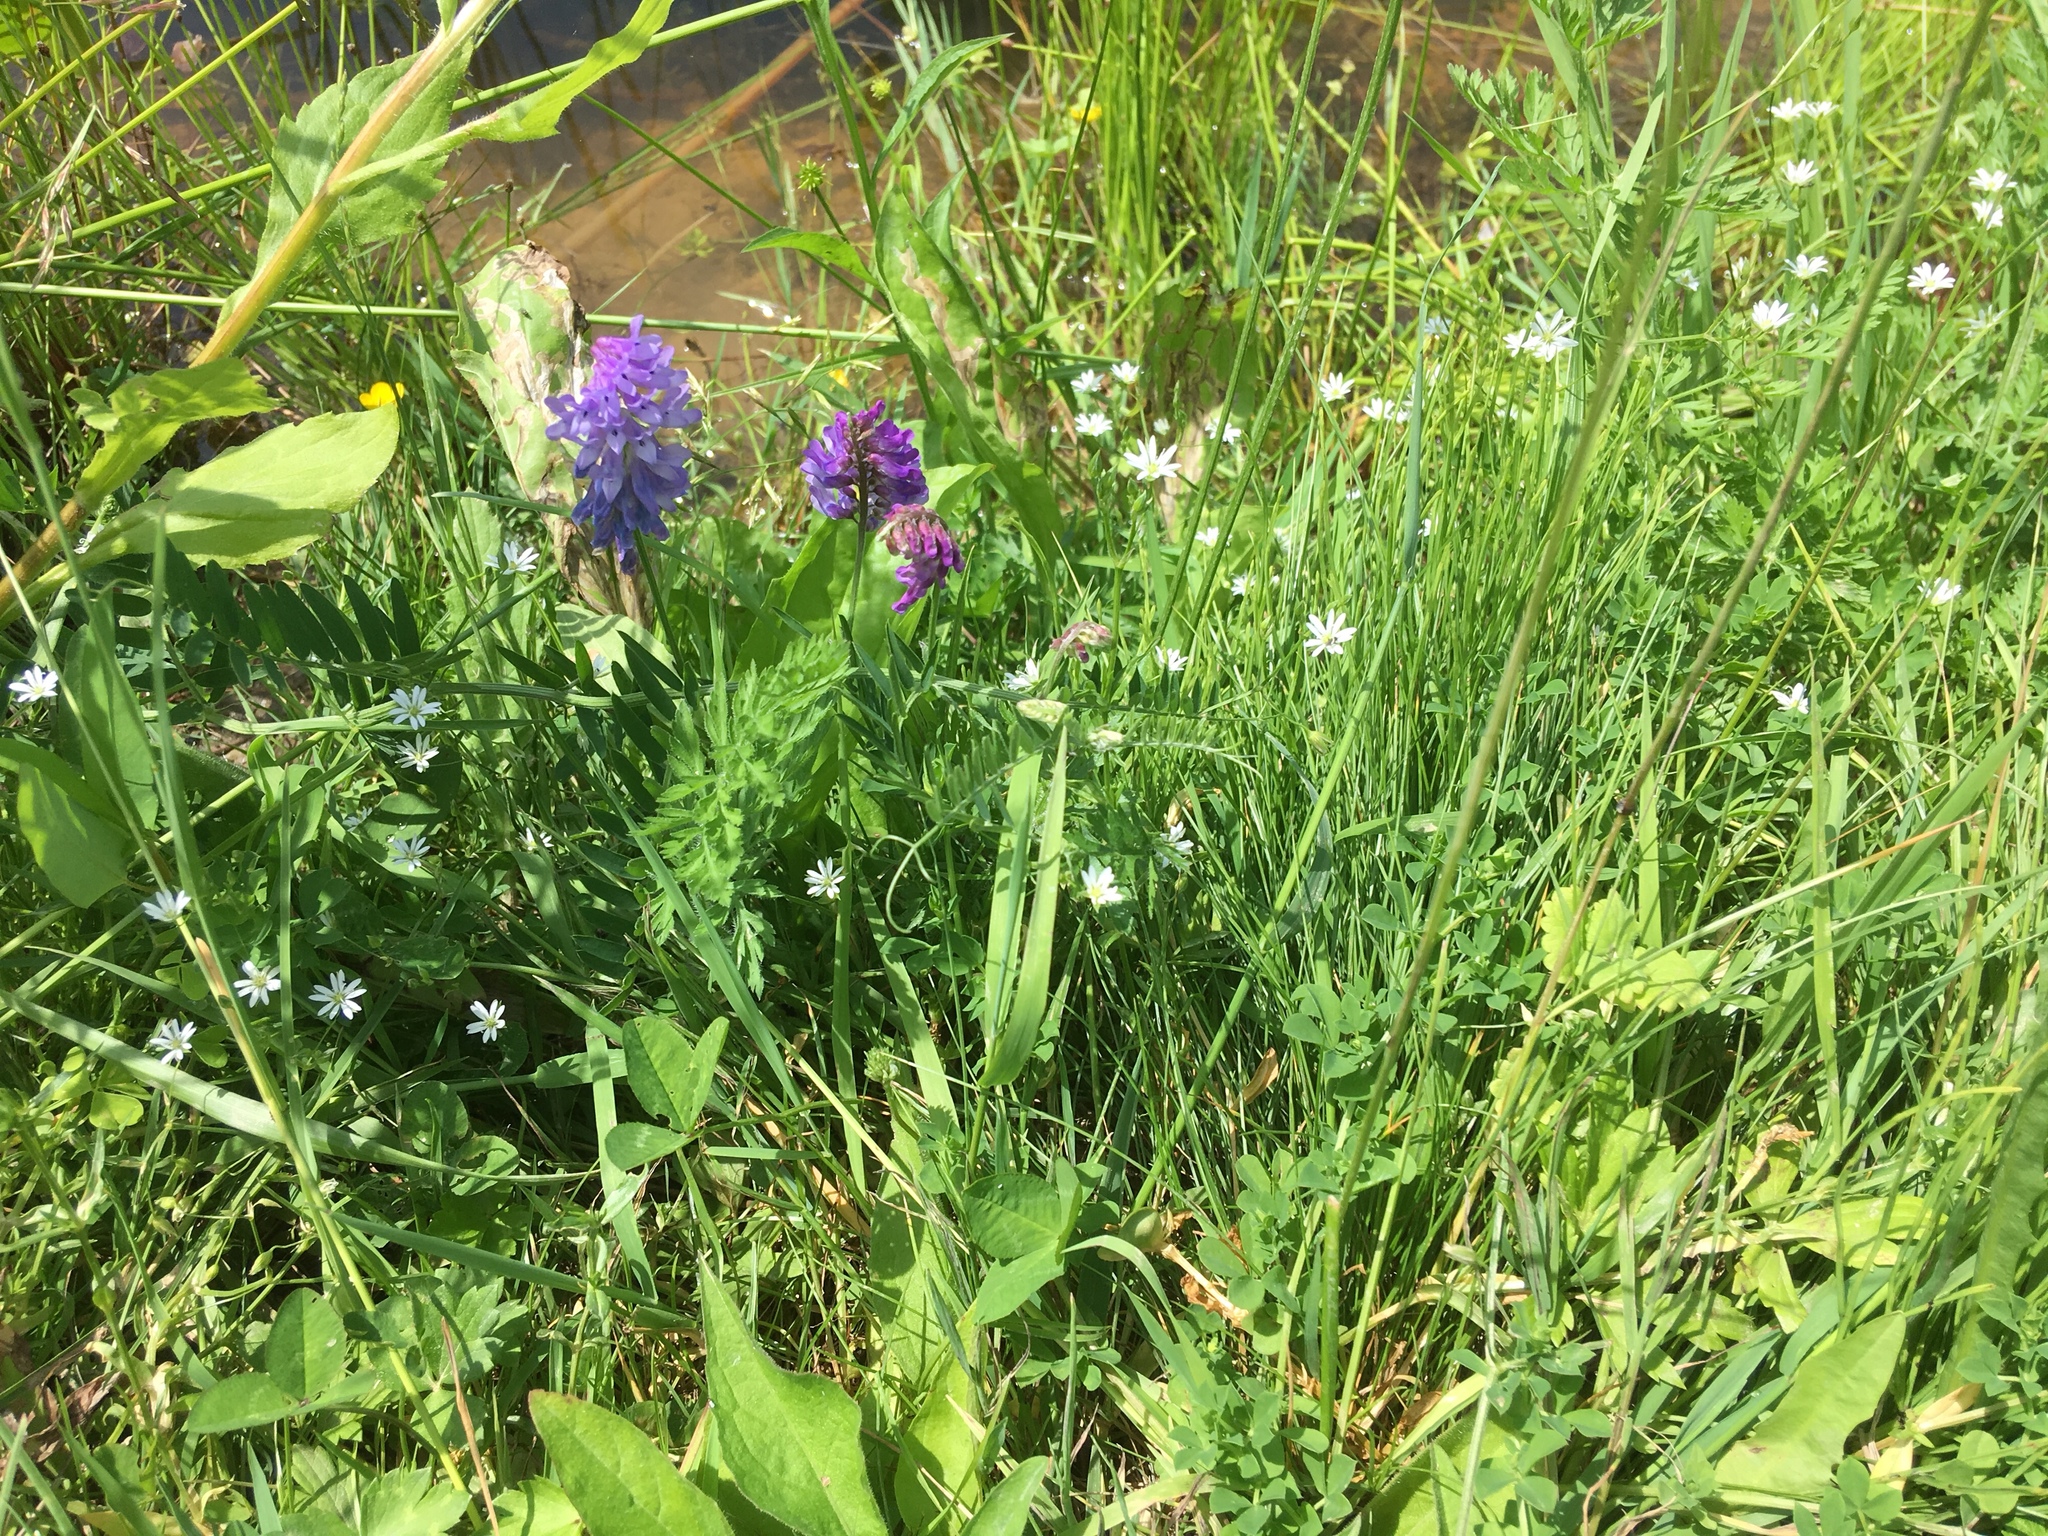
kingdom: Plantae
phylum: Tracheophyta
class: Magnoliopsida
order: Fabales
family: Fabaceae
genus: Vicia
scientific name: Vicia cracca
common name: Bird vetch
